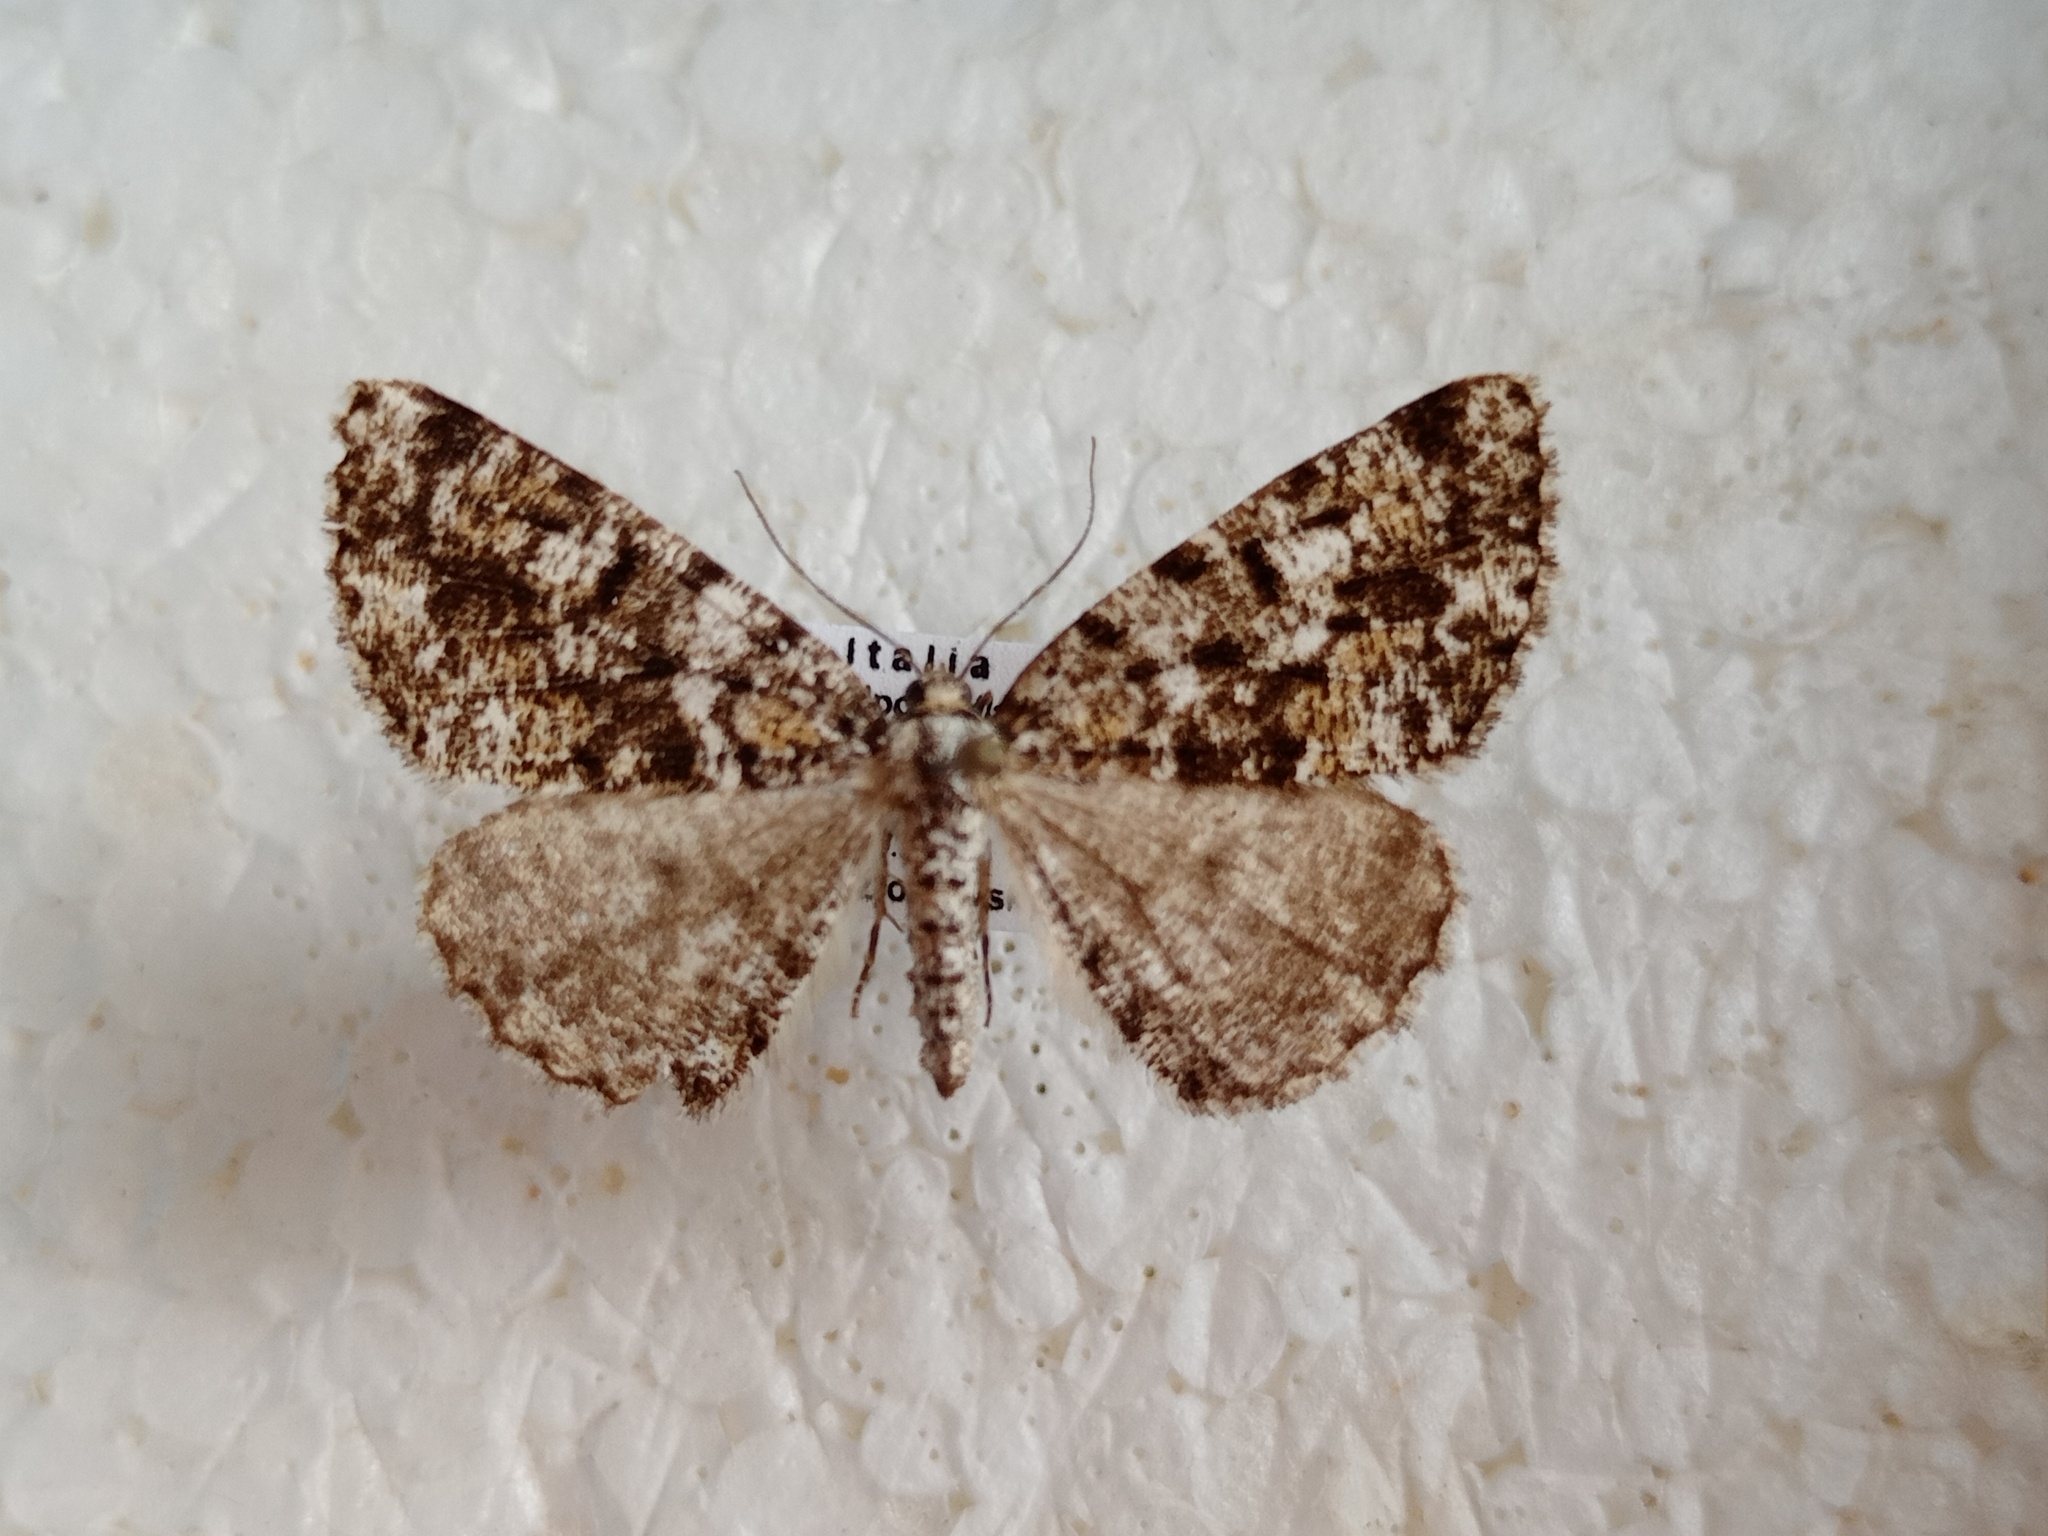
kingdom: Animalia
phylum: Arthropoda
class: Insecta
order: Lepidoptera
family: Geometridae
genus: Fagivorina
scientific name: Fagivorina arenaria
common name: Speckled beauty
